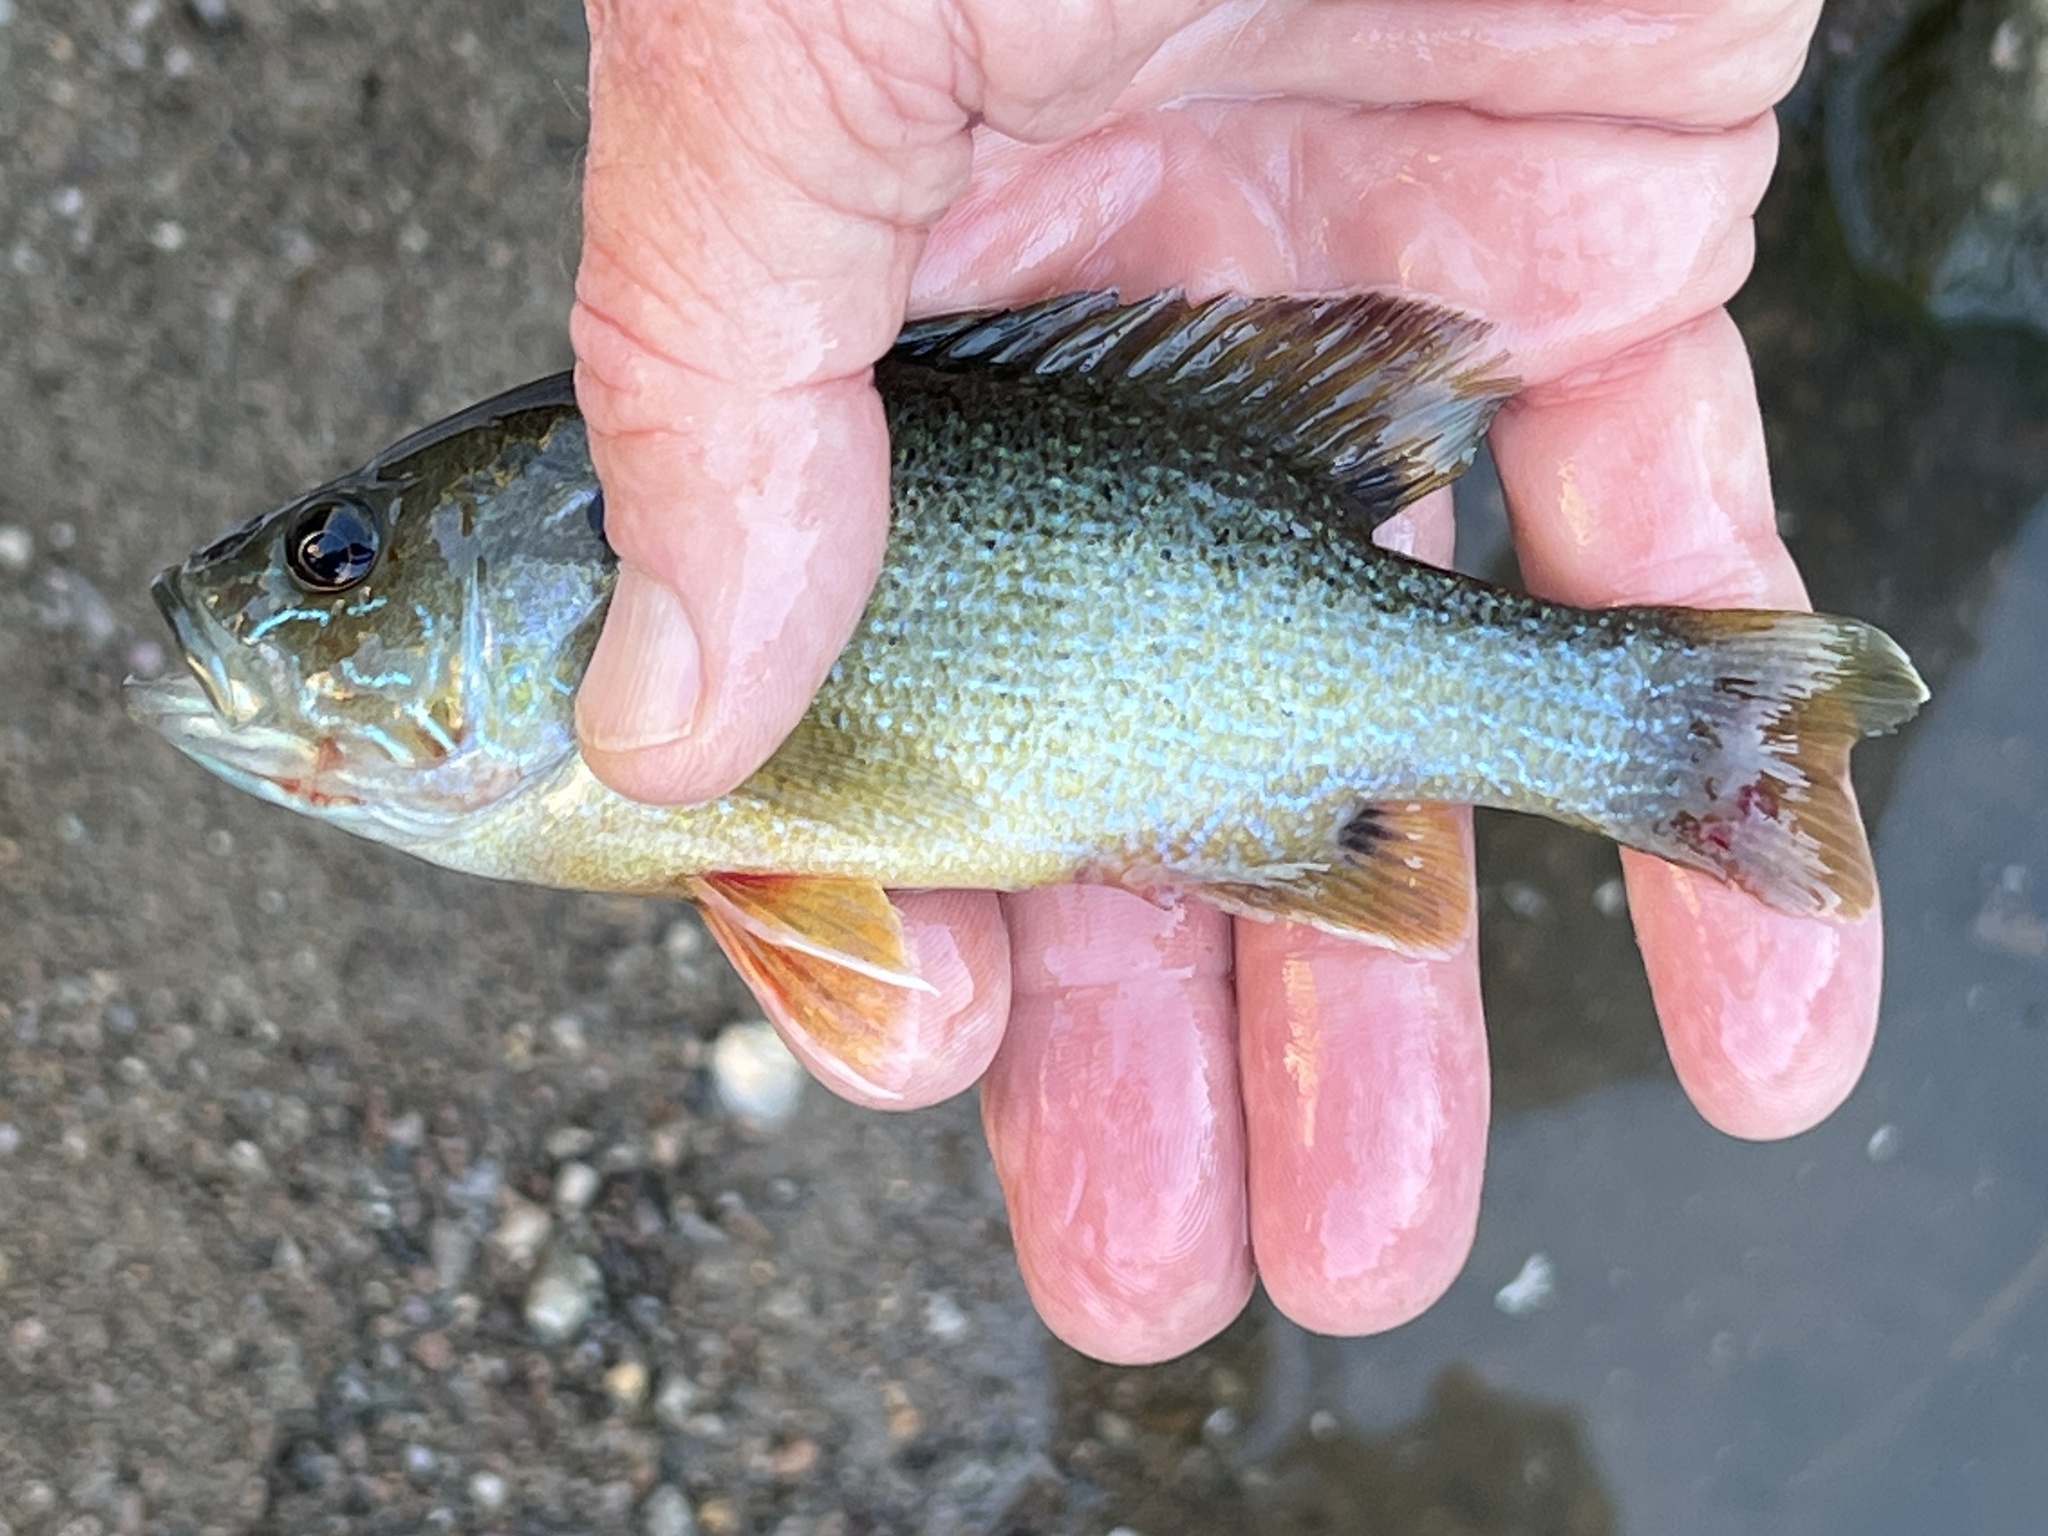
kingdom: Animalia
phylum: Chordata
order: Perciformes
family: Centrarchidae
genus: Lepomis
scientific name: Lepomis cyanellus
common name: Green sunfish
